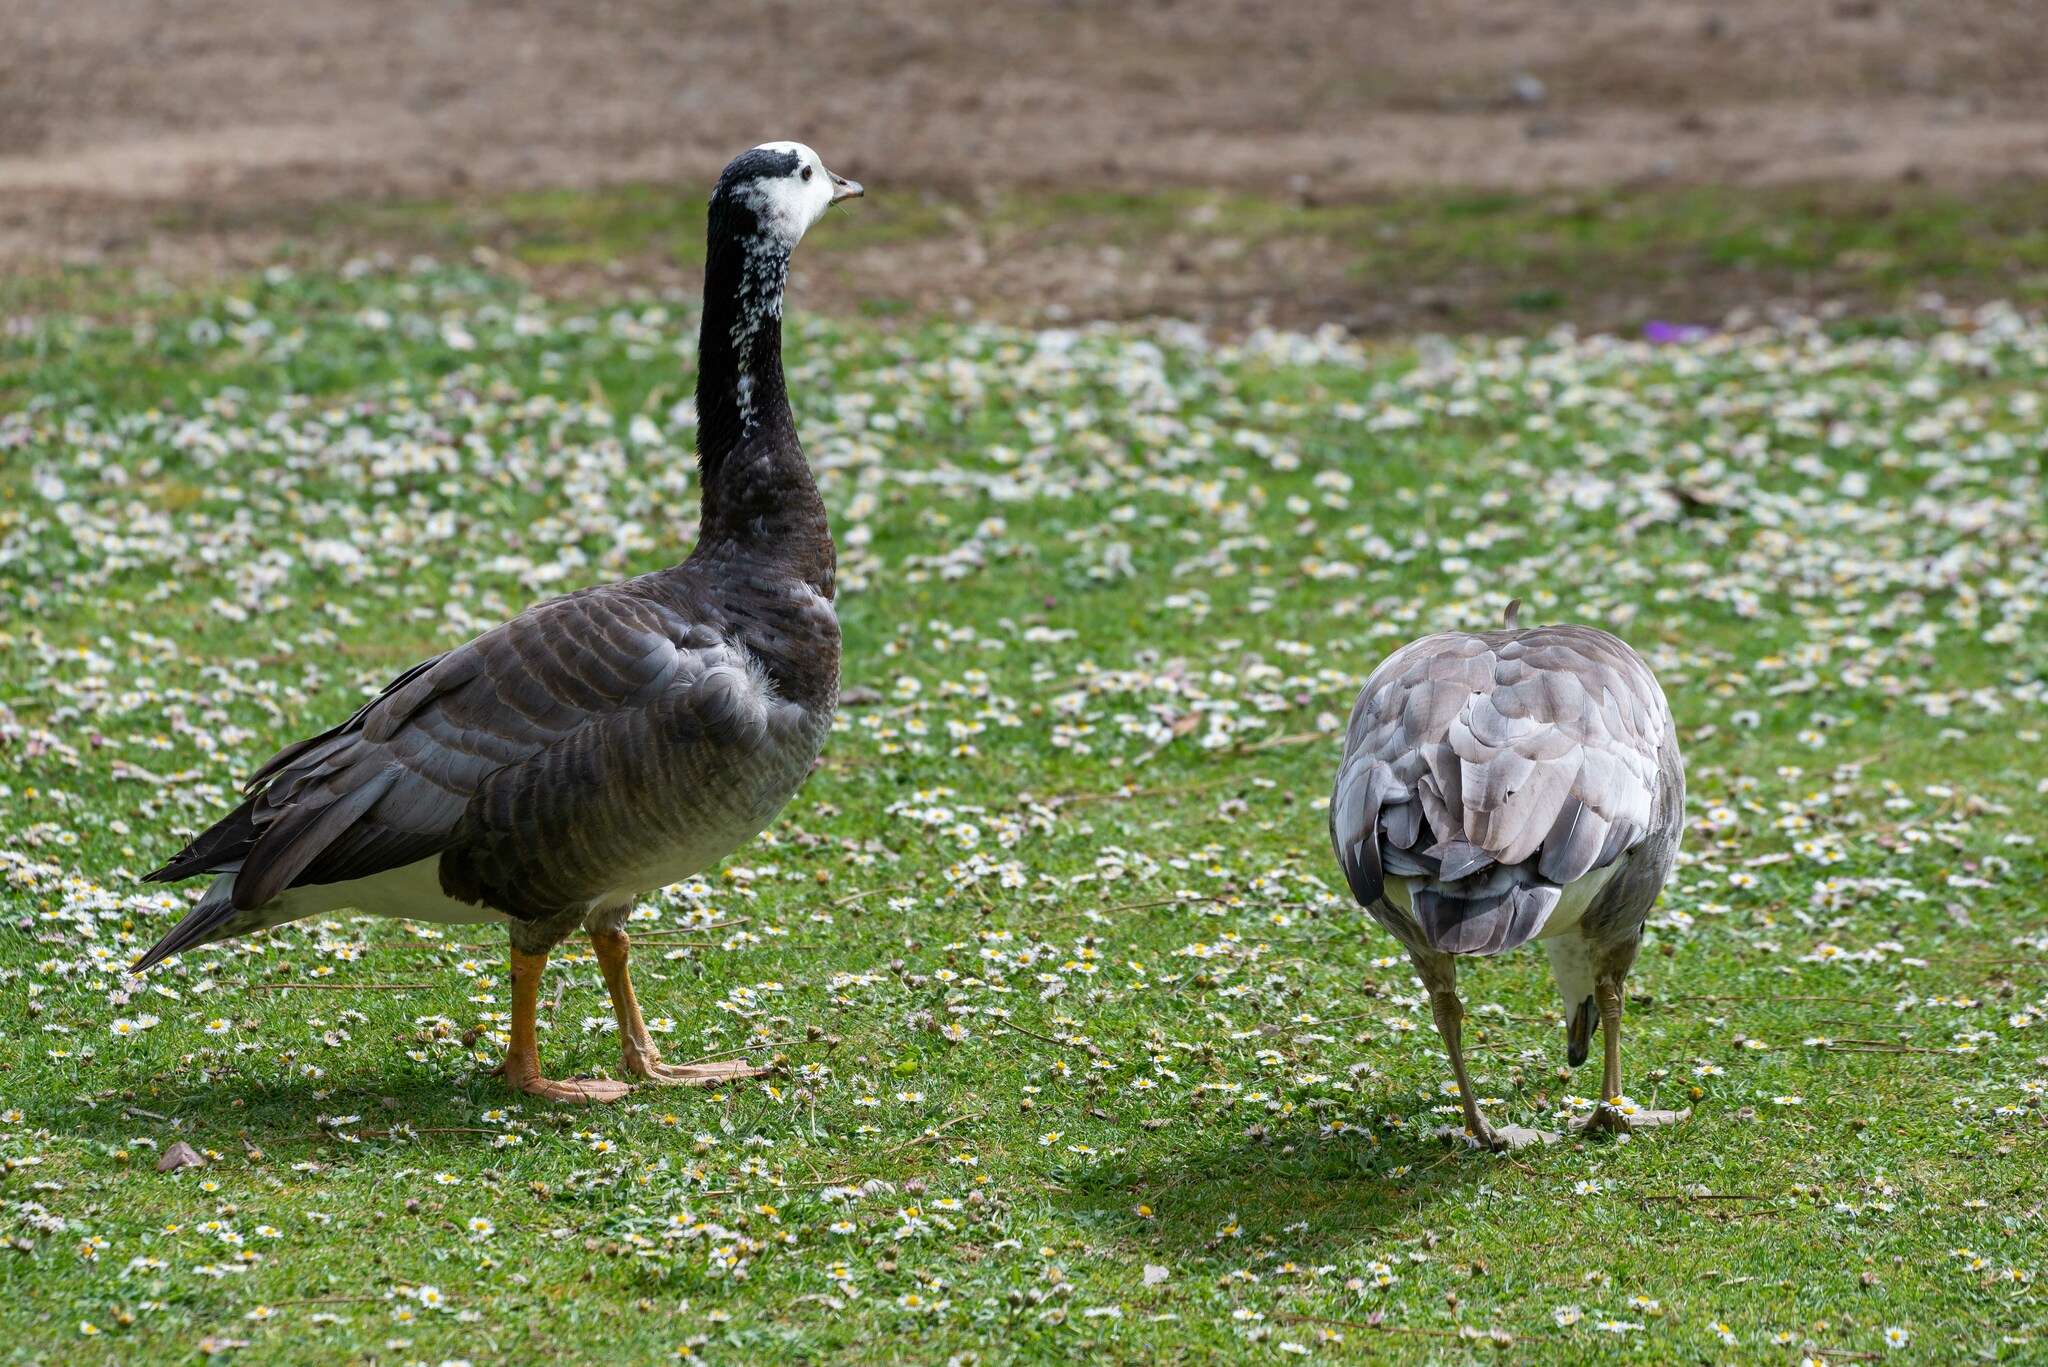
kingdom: Animalia
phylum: Chordata
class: Aves
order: Anseriformes
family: Anatidae
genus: Branta
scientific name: Branta leucopsis
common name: Barnacle goose
